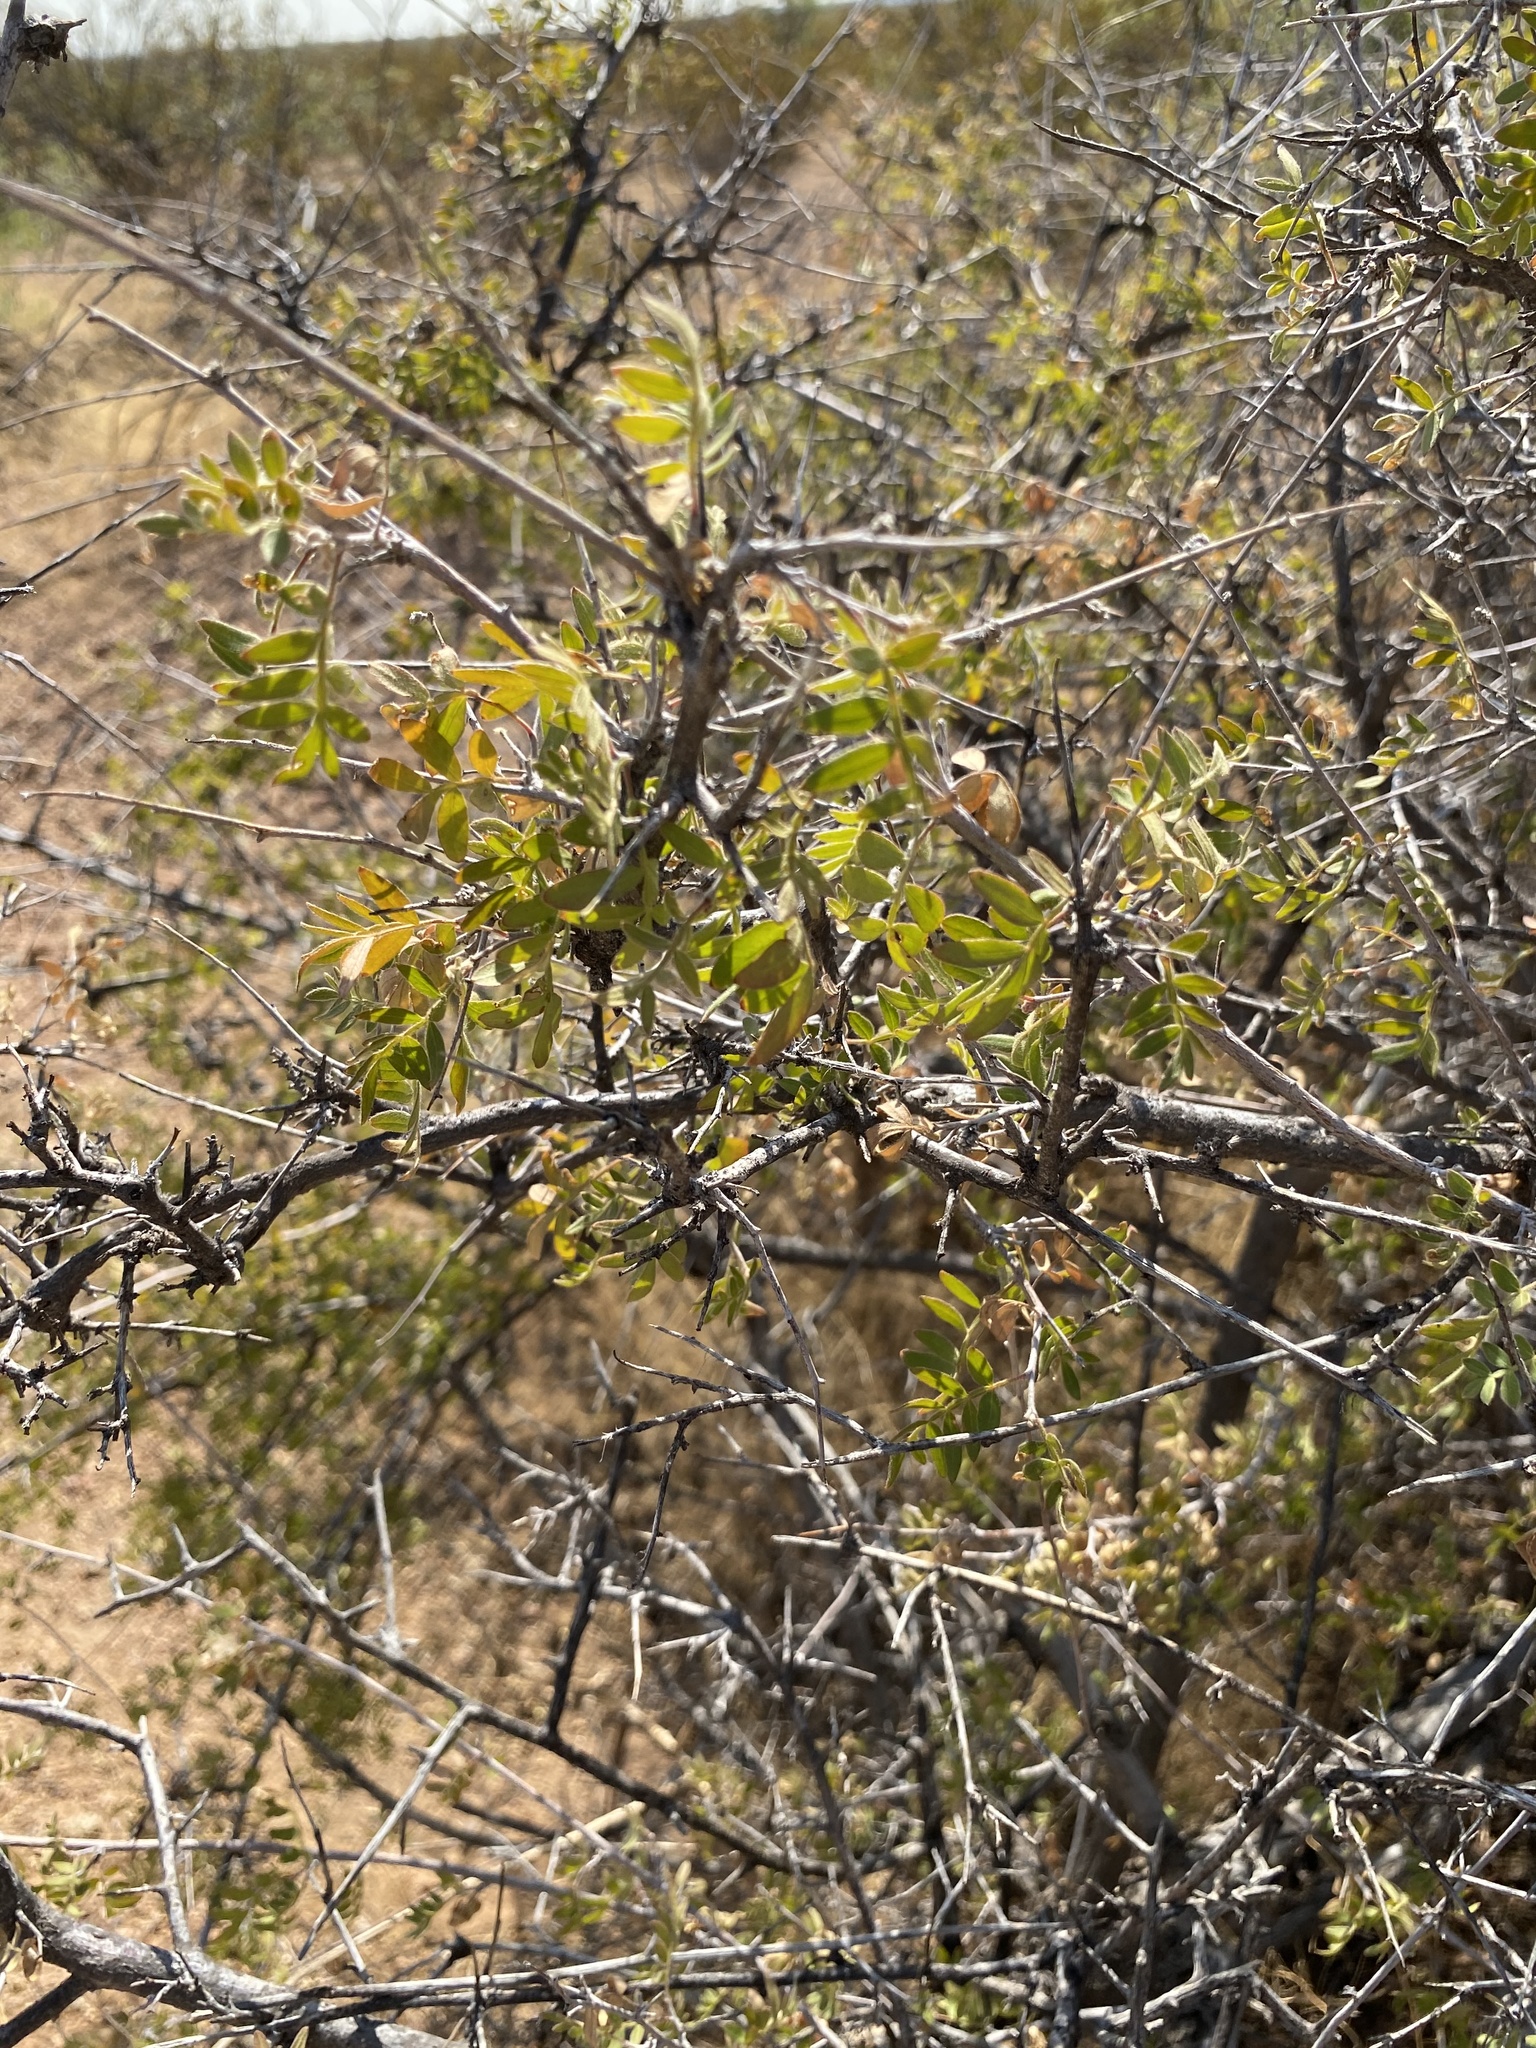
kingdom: Plantae
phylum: Tracheophyta
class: Magnoliopsida
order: Sapindales
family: Anacardiaceae
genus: Rhus
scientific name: Rhus microphylla
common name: Desert sumac
